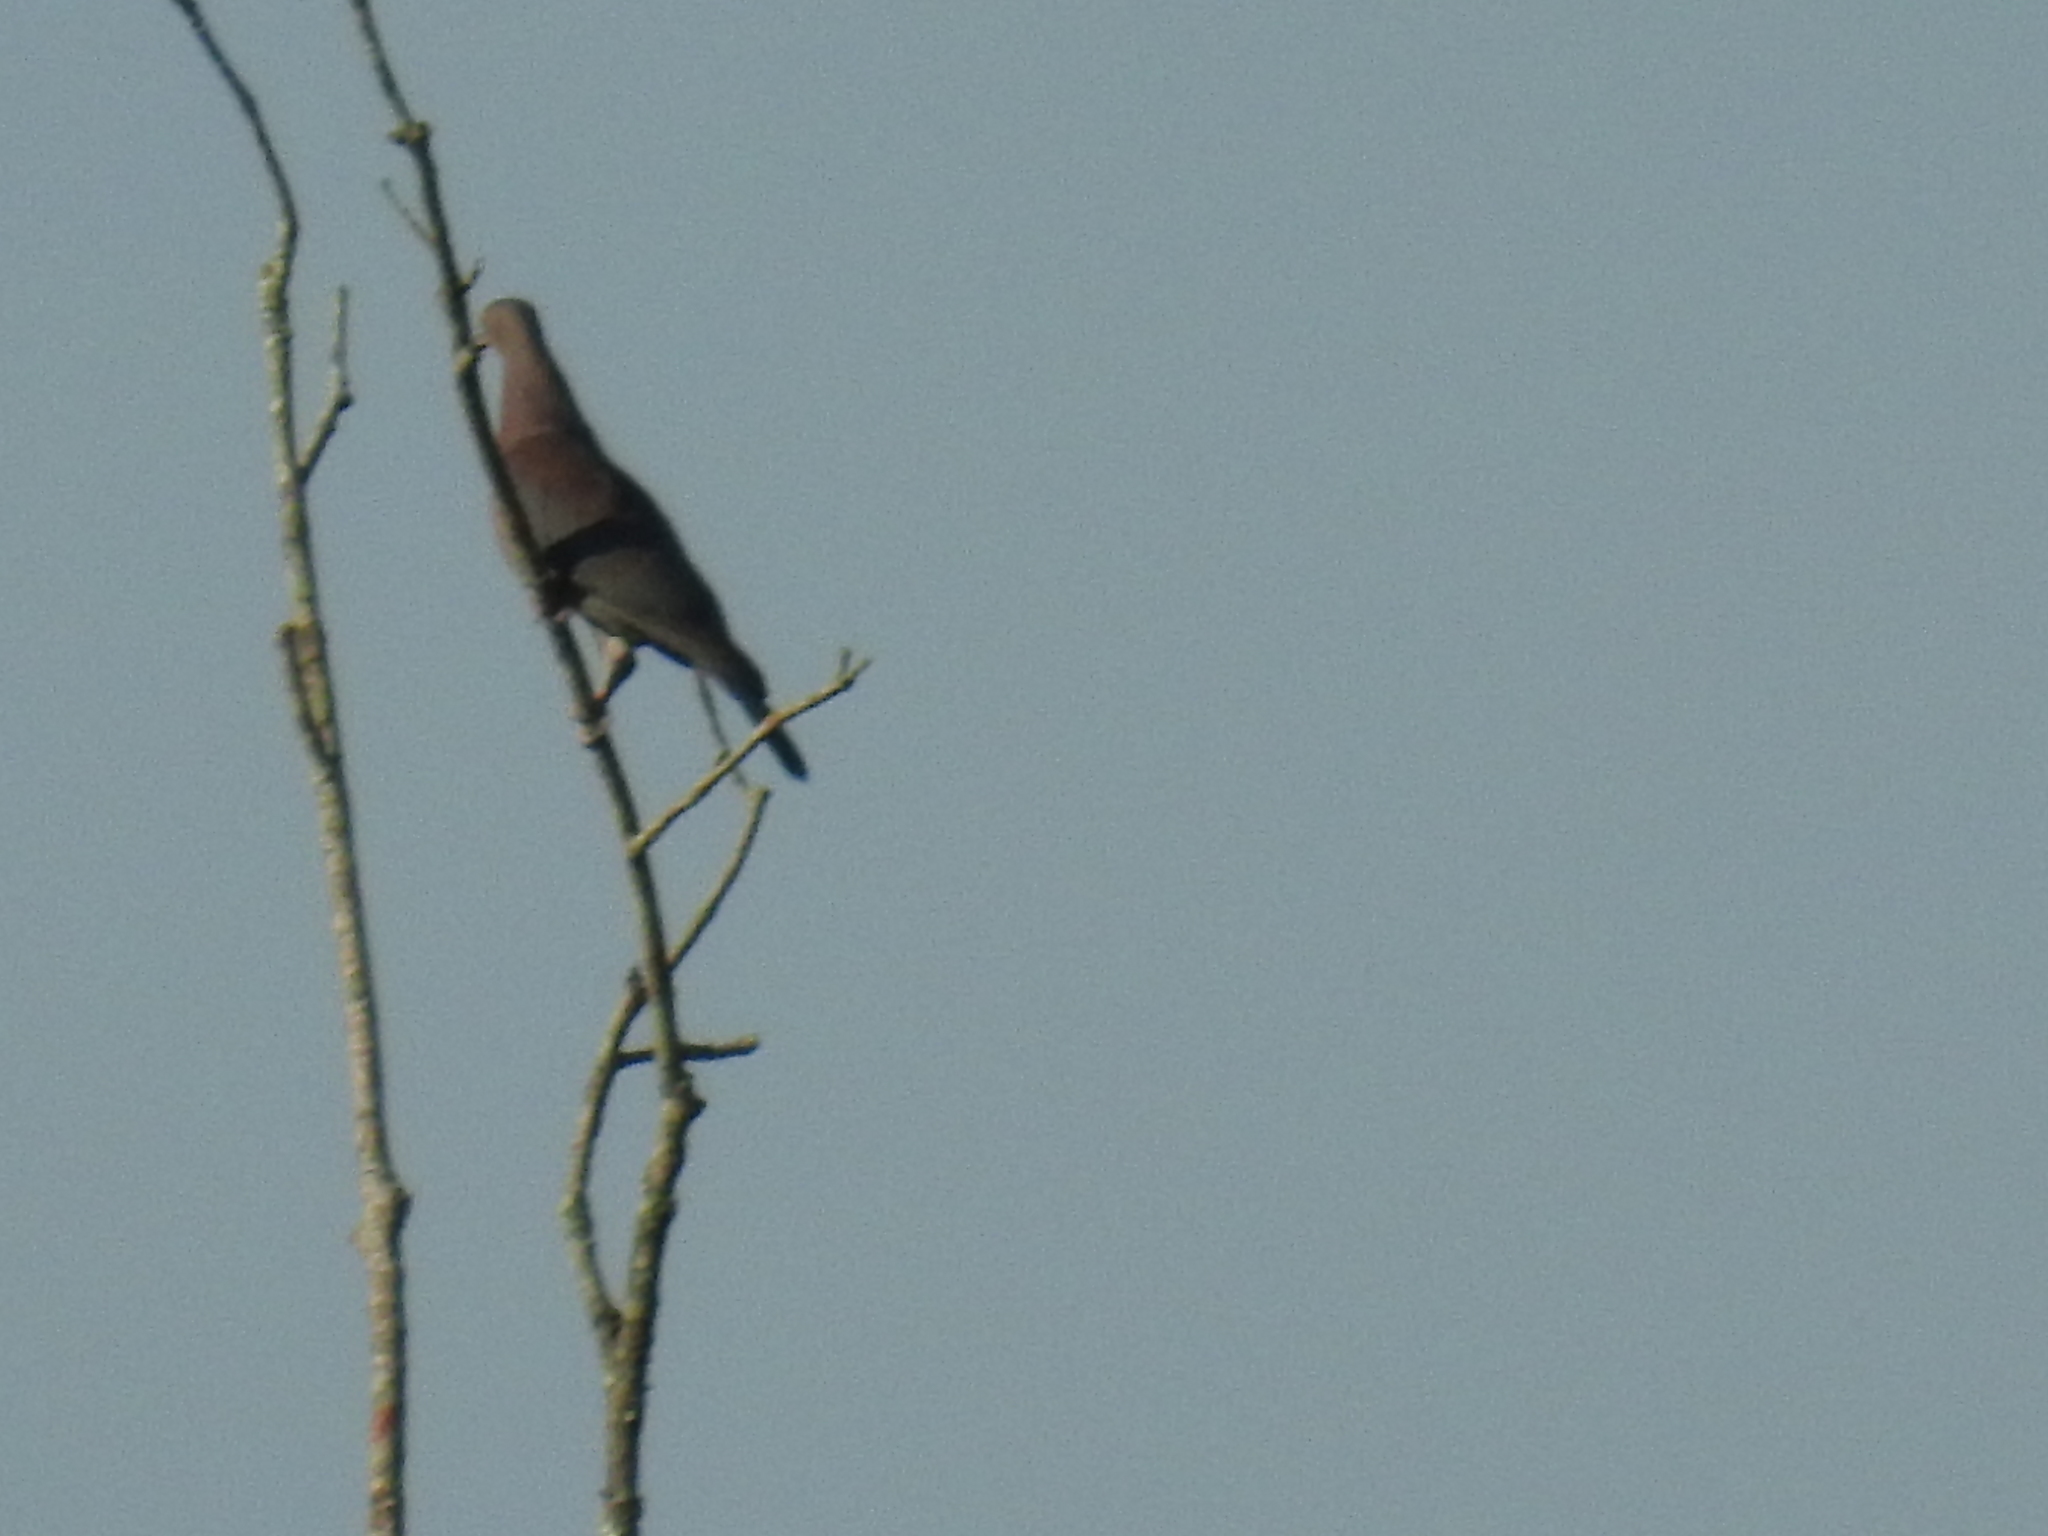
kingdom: Animalia
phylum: Chordata
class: Aves
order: Columbiformes
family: Columbidae
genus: Patagioenas
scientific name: Patagioenas flavirostris
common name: Red-billed pigeon
